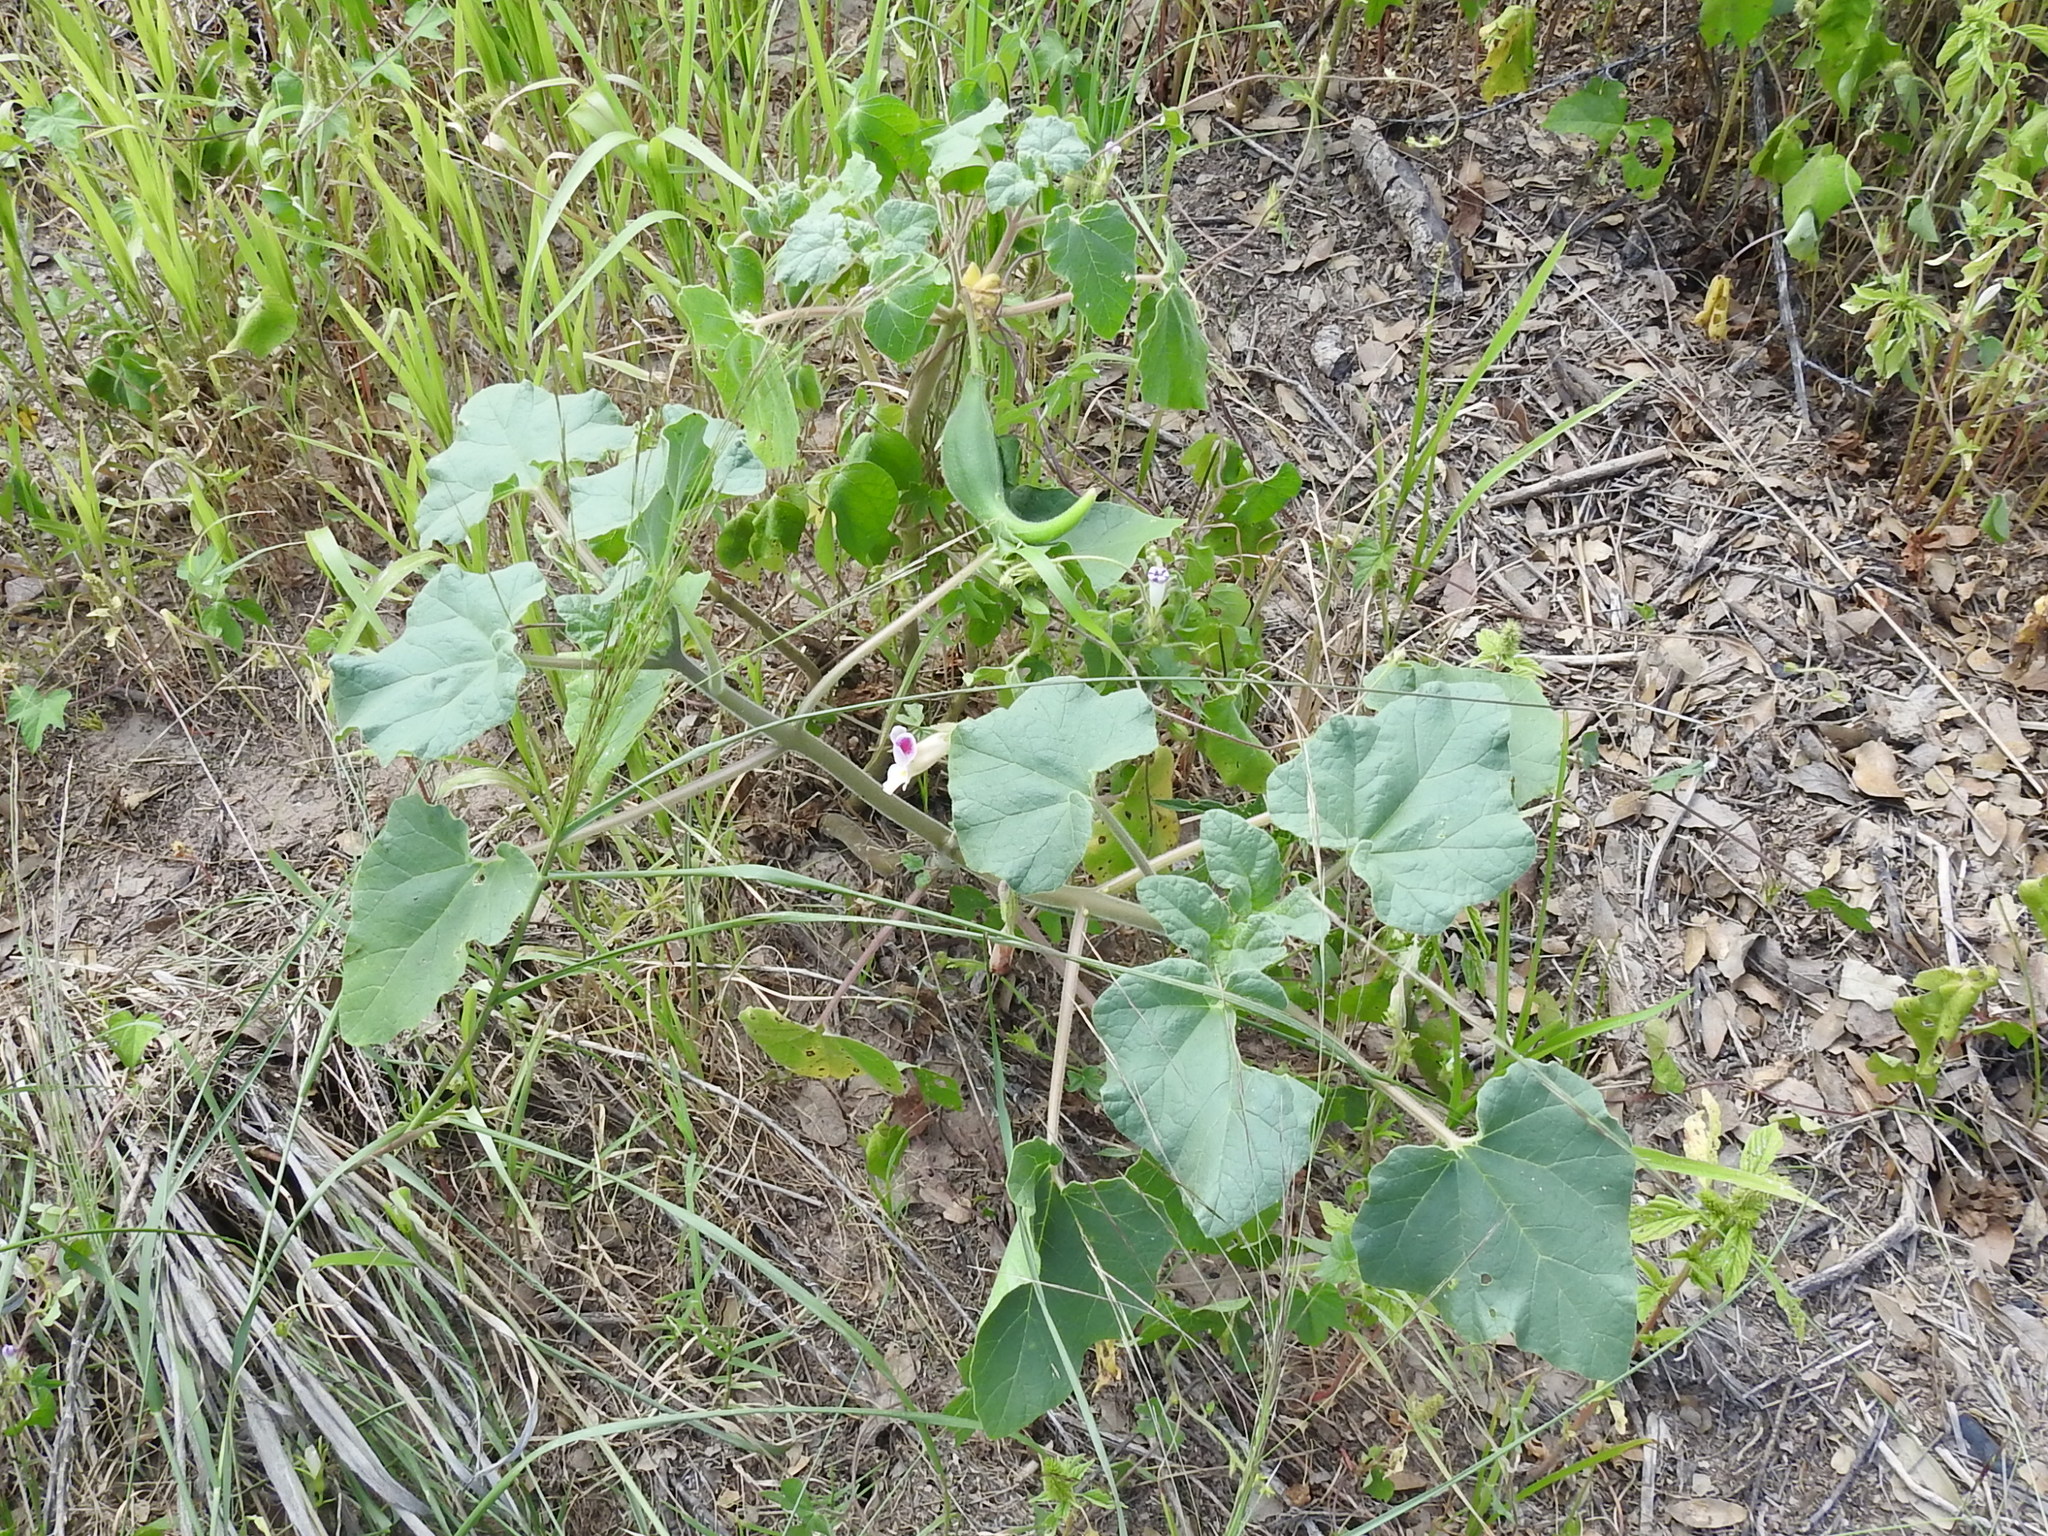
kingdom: Plantae
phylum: Tracheophyta
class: Magnoliopsida
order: Lamiales
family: Martyniaceae
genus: Proboscidea
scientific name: Proboscidea parviflora
